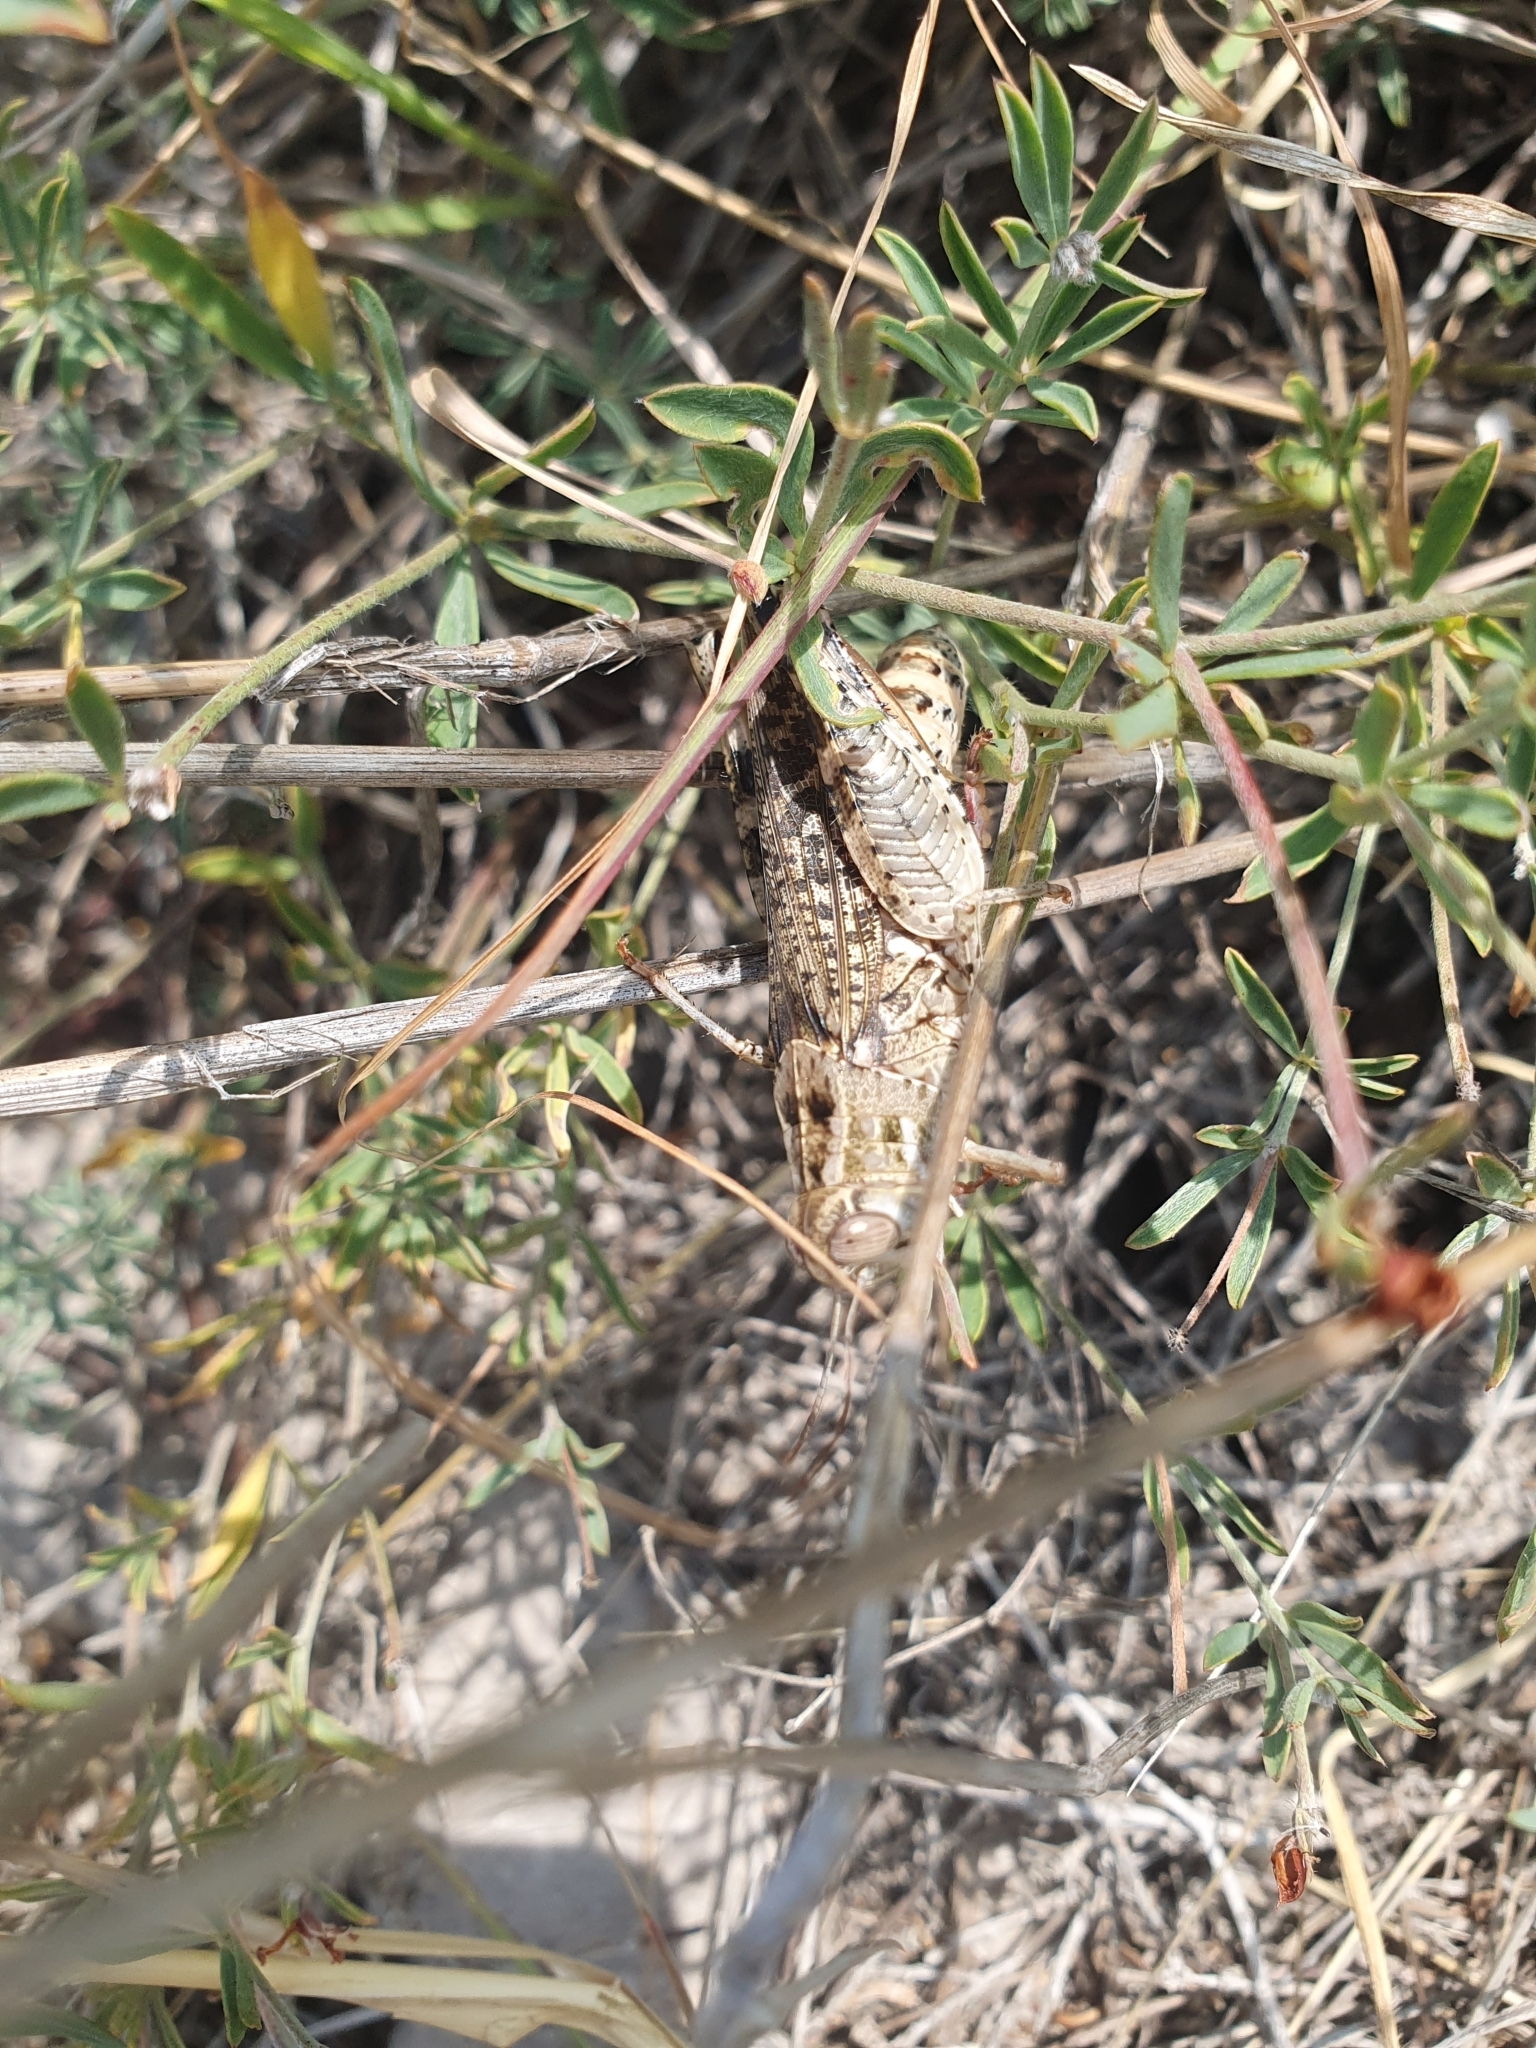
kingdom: Animalia
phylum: Arthropoda
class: Insecta
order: Orthoptera
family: Acrididae
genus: Calliptamus
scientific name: Calliptamus italicus
